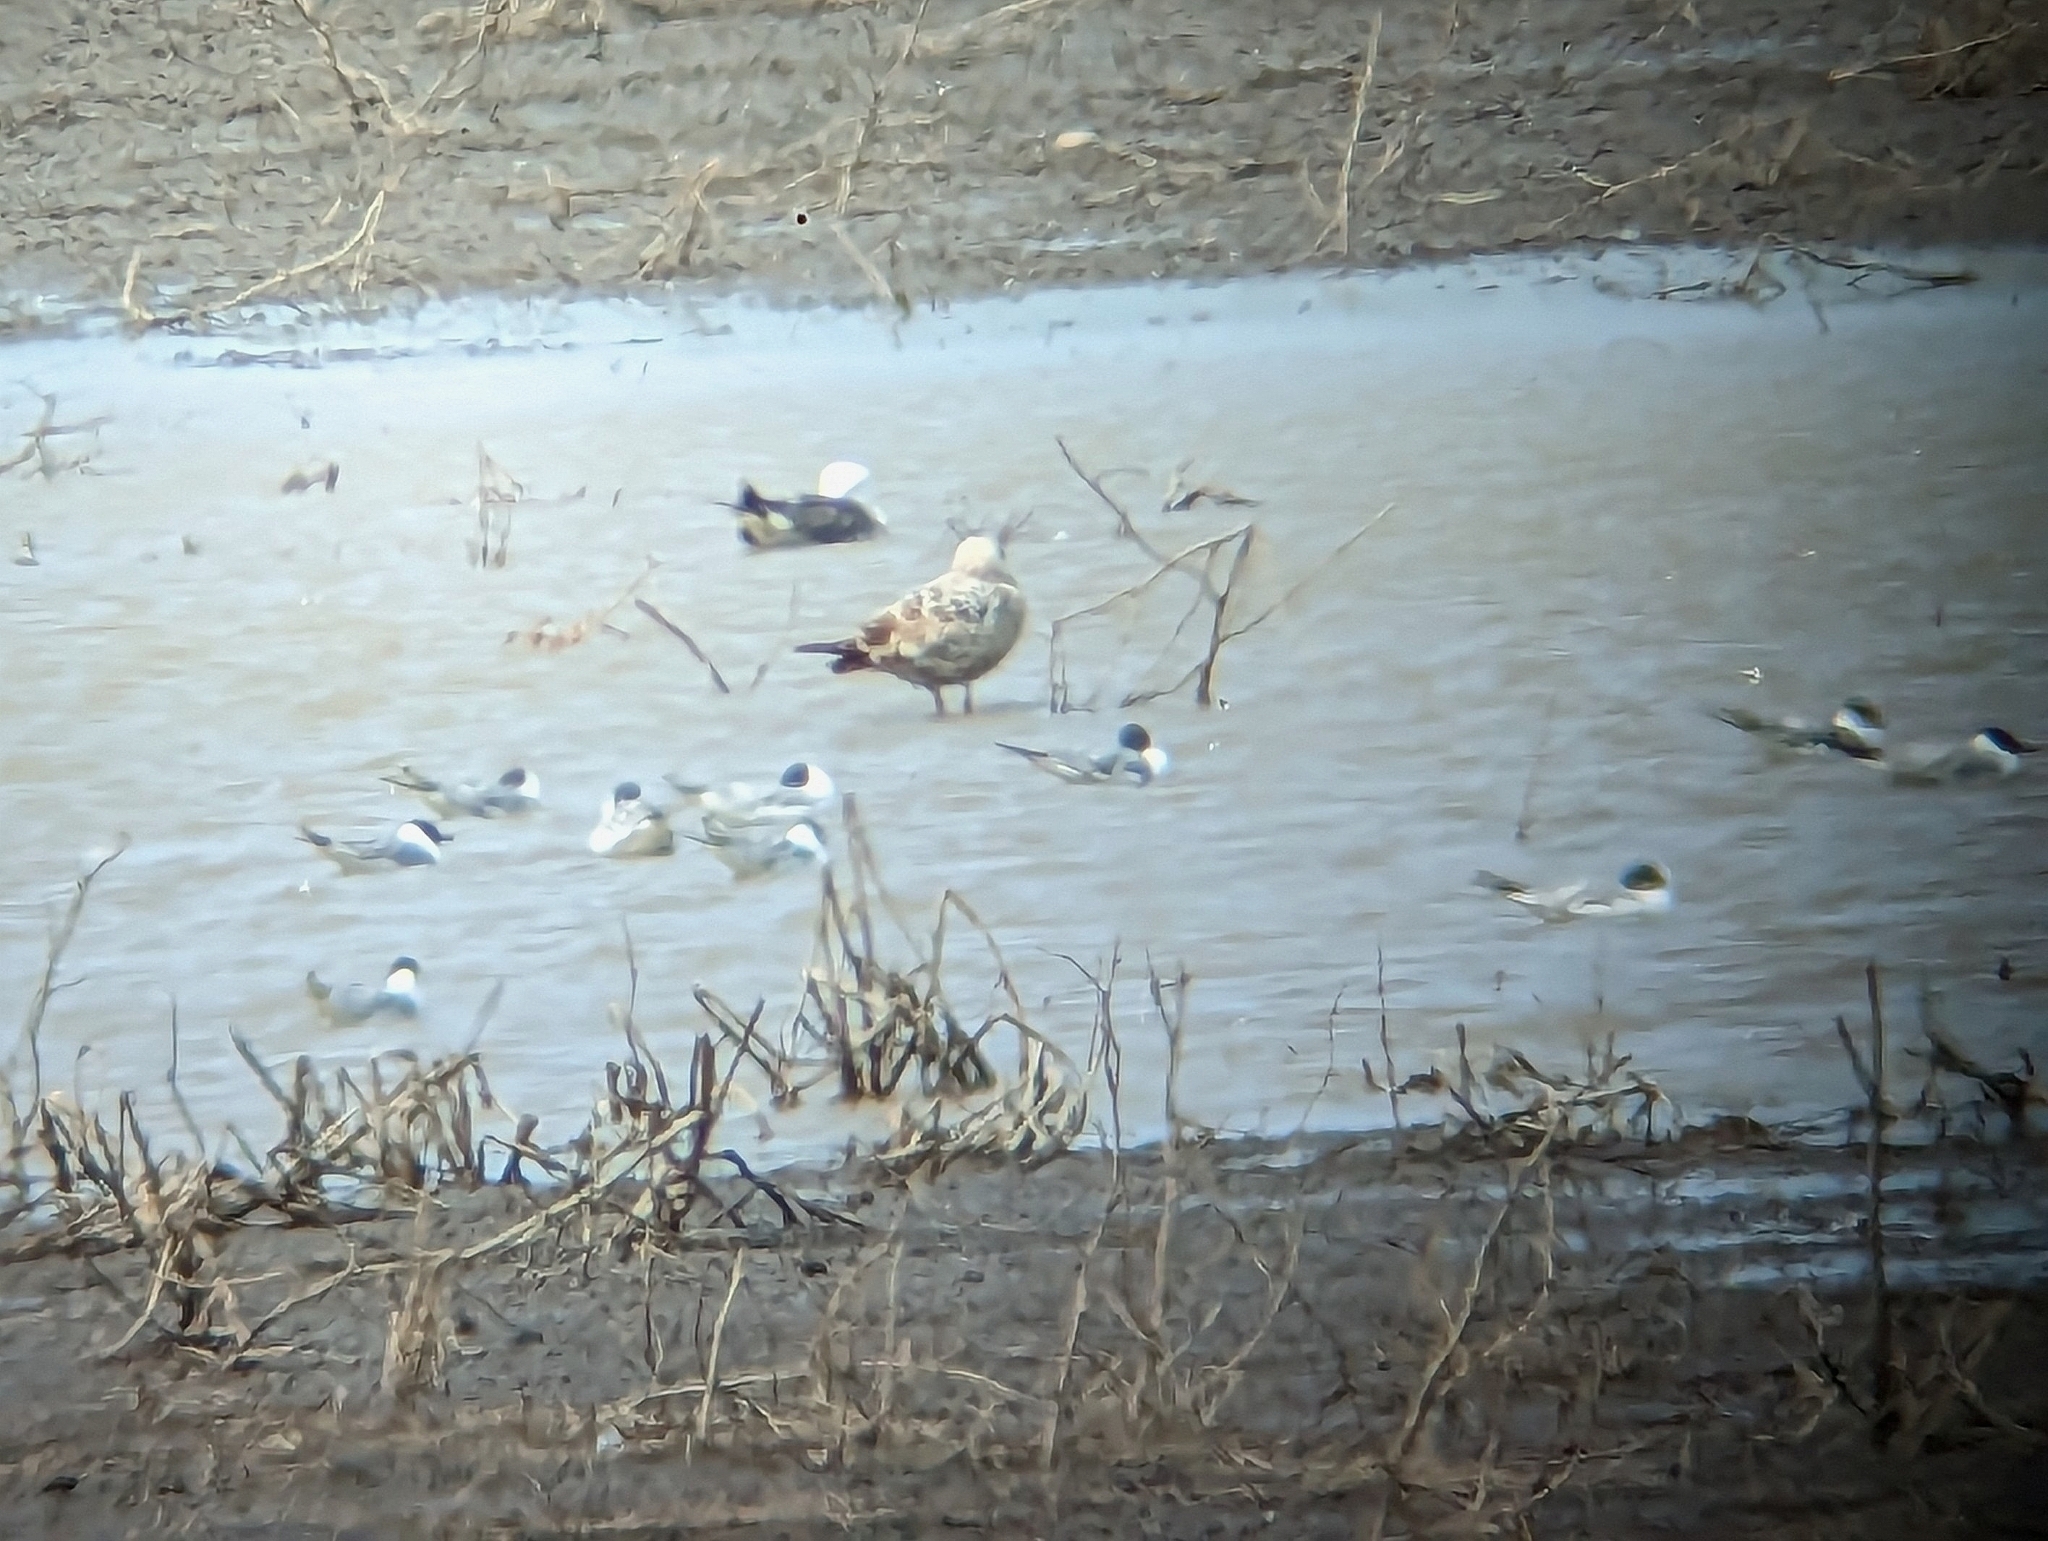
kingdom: Animalia
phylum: Chordata
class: Aves
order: Charadriiformes
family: Laridae
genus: Chroicocephalus
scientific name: Chroicocephalus philadelphia
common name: Bonaparte's gull
